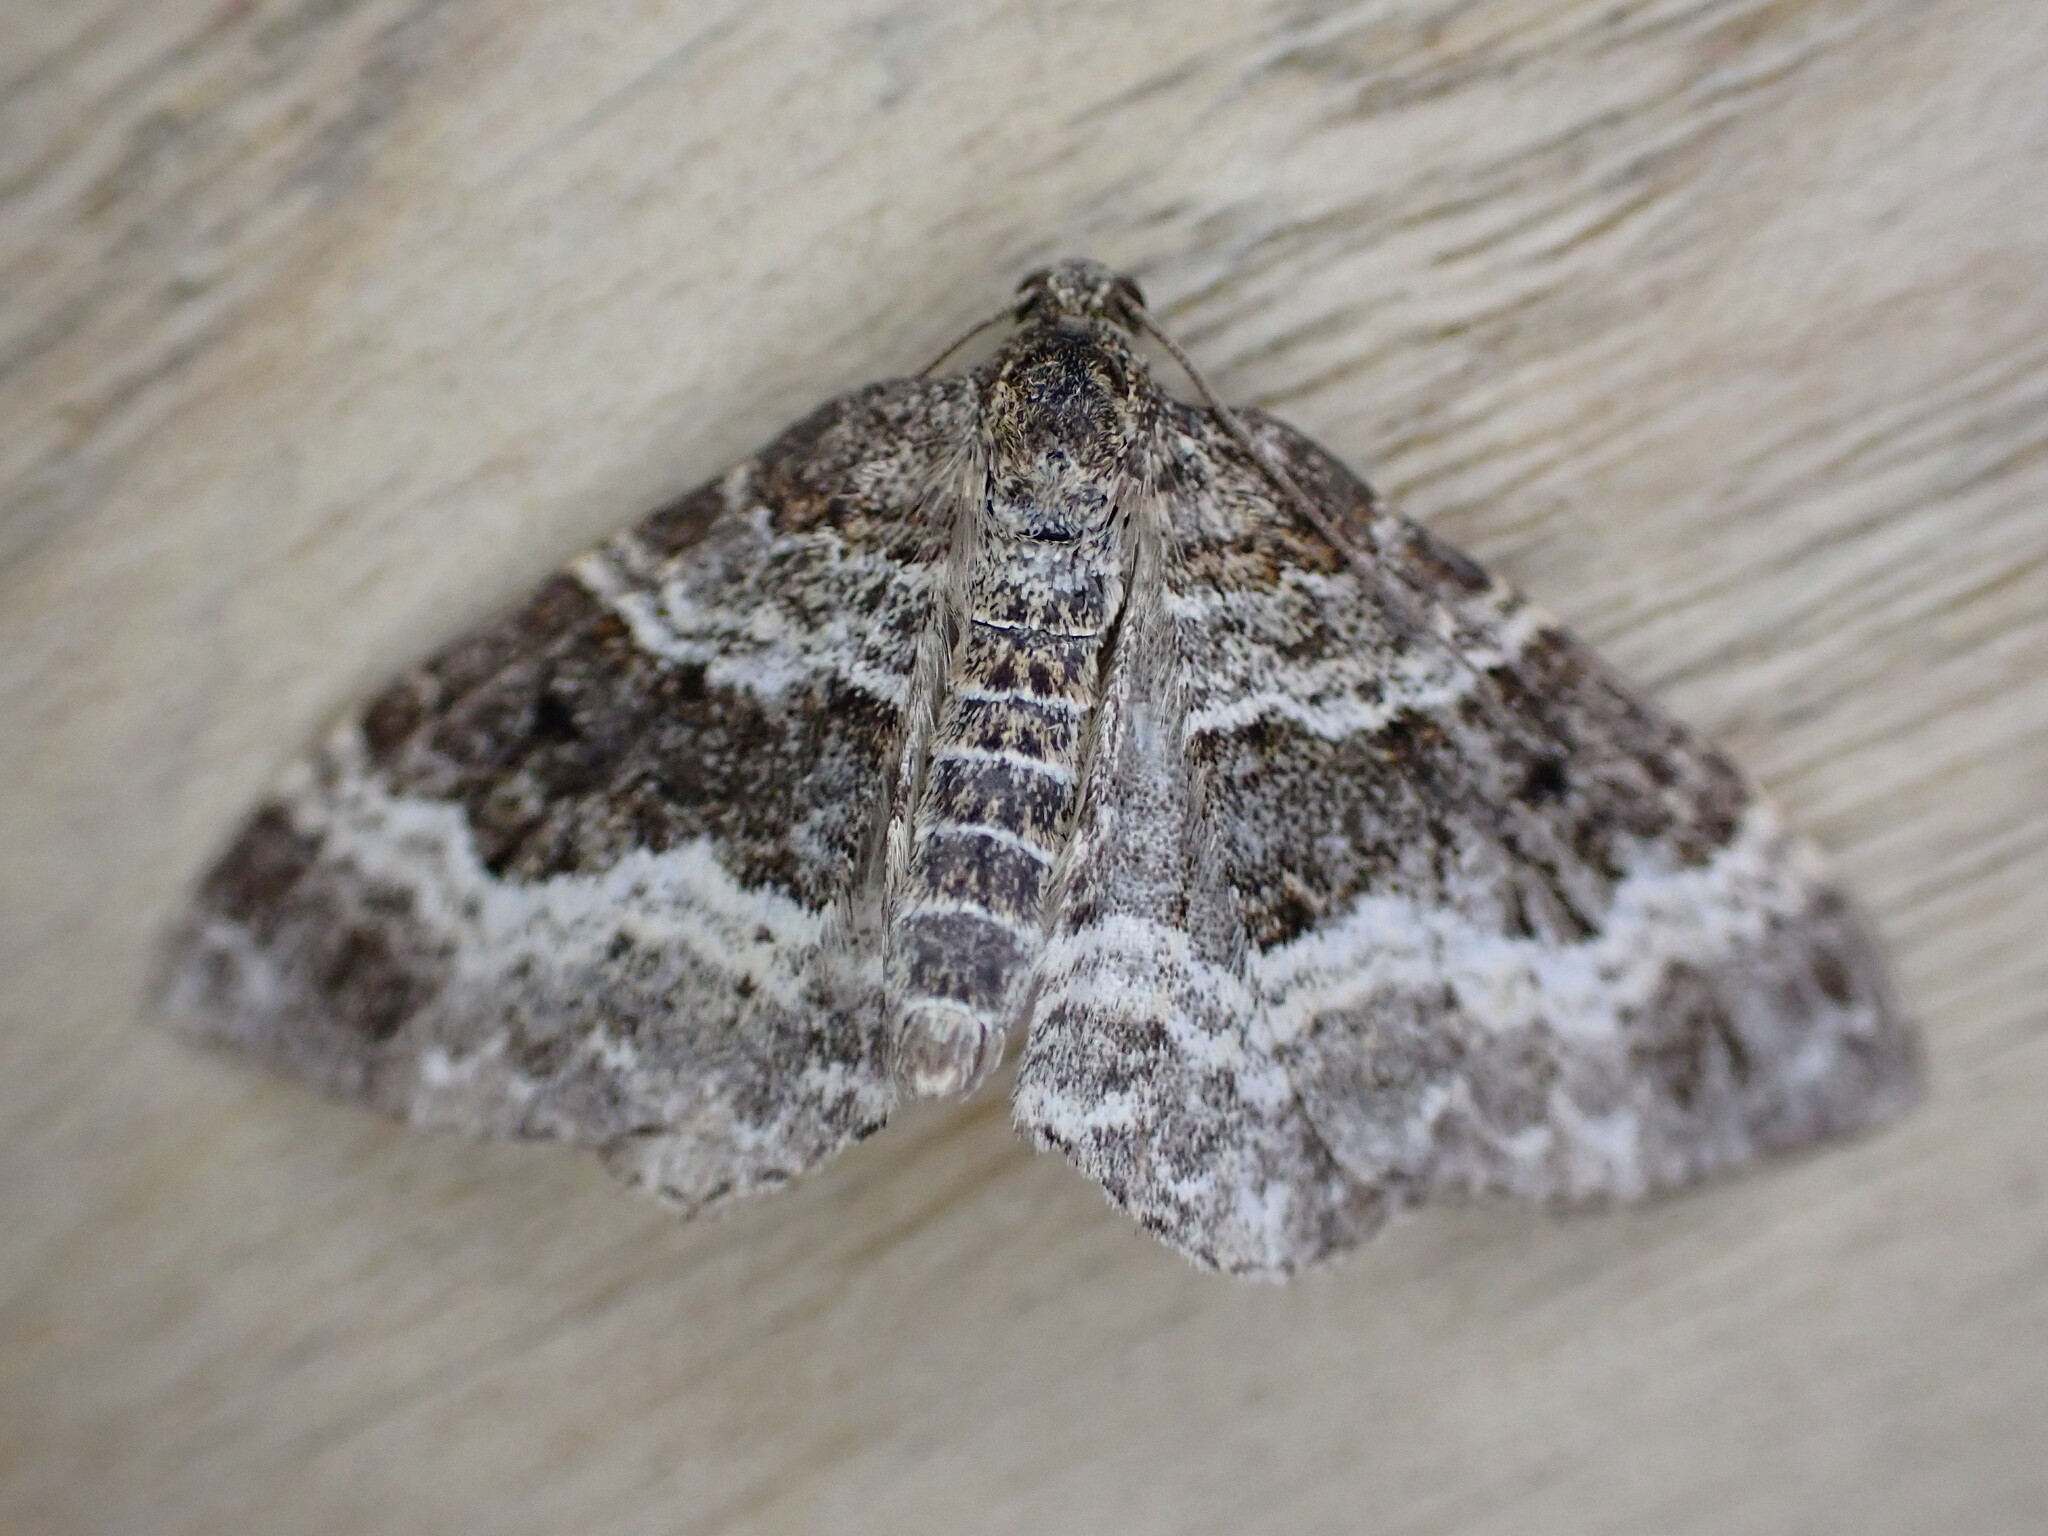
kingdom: Animalia
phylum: Arthropoda
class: Insecta
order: Lepidoptera
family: Geometridae
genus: Epirrhoe
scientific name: Epirrhoe alternata
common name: Common carpet
